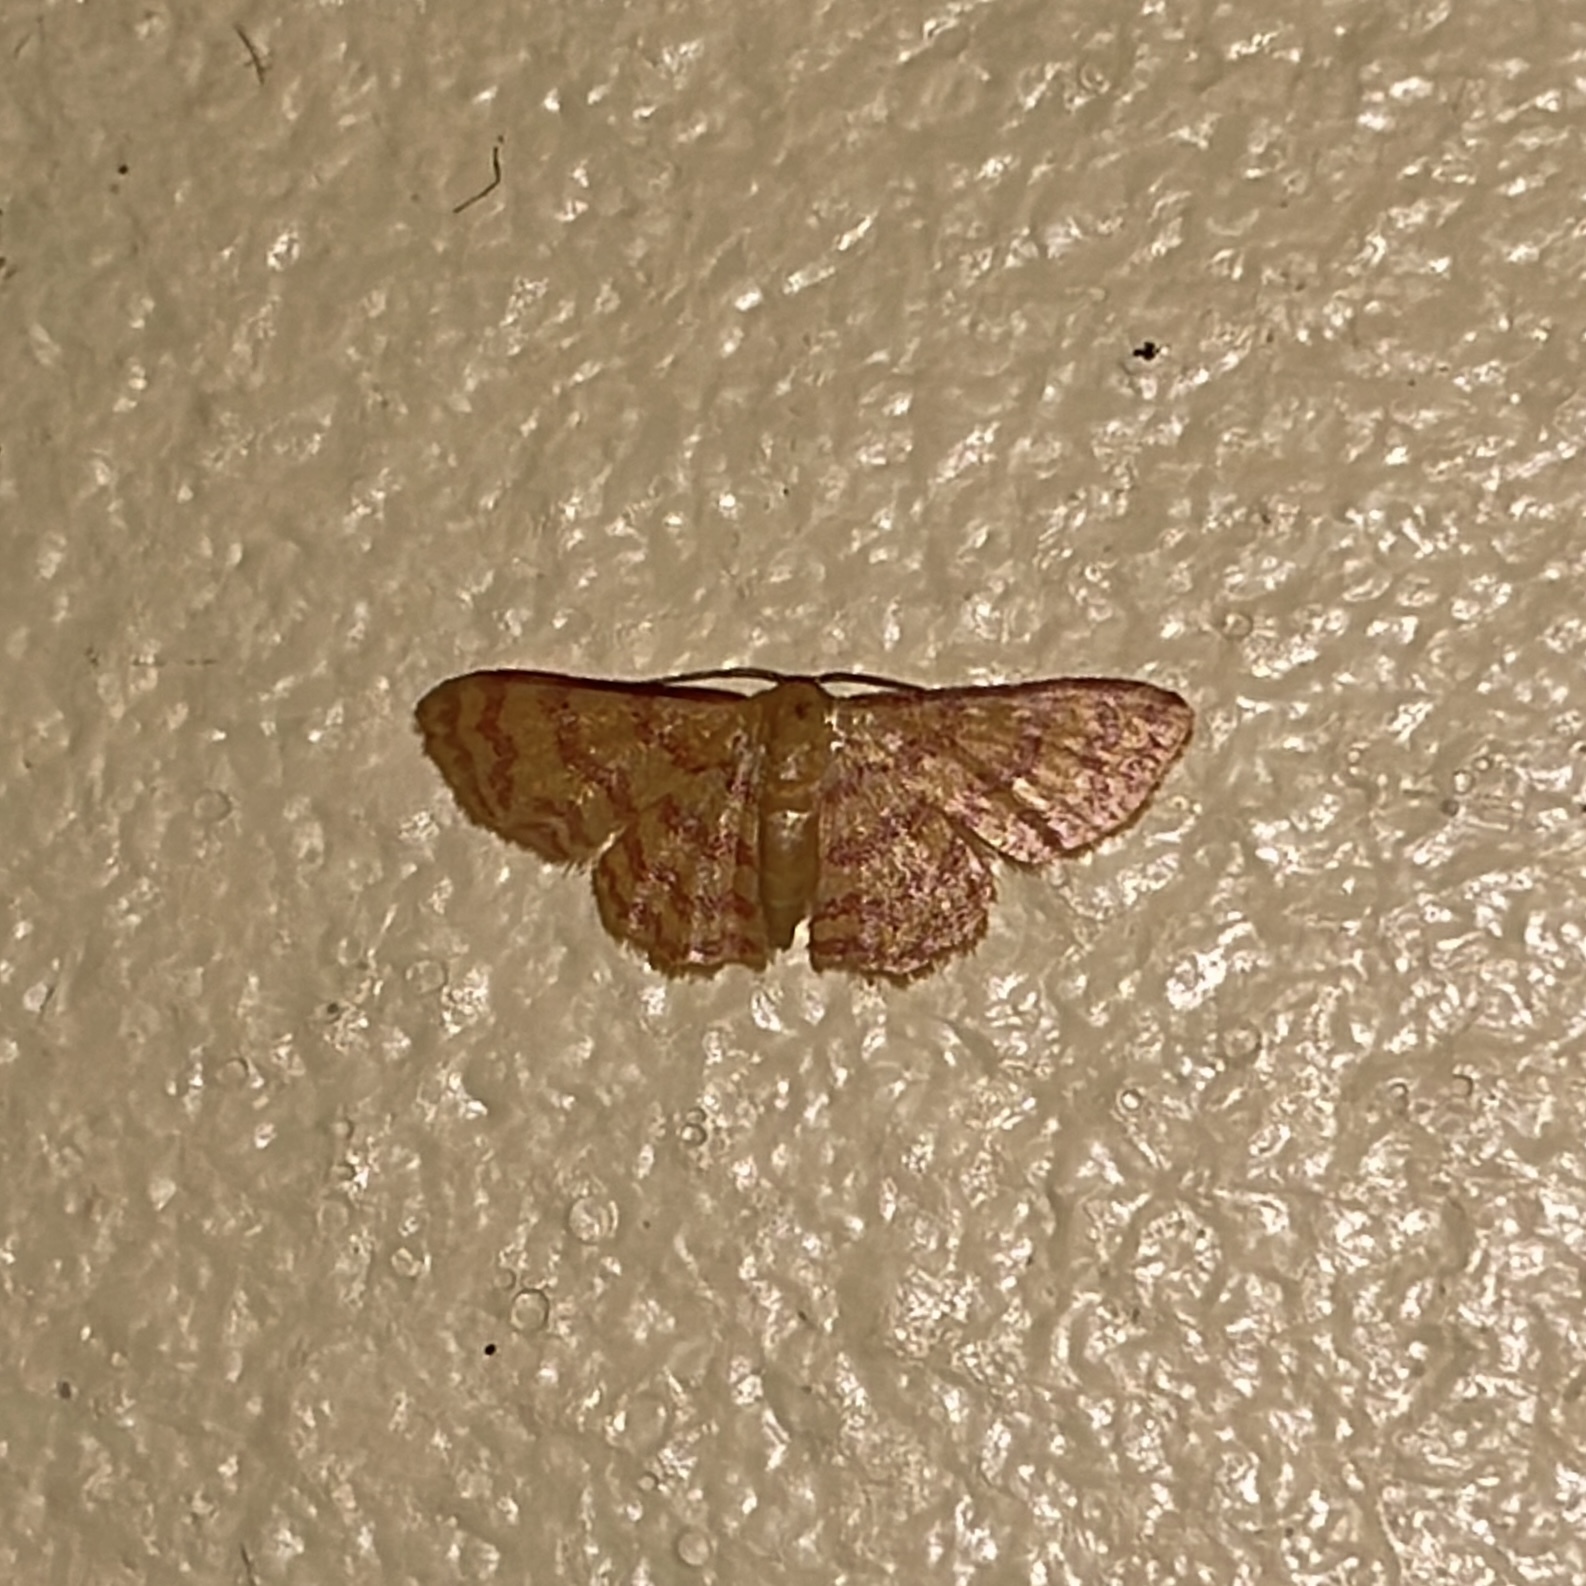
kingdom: Animalia
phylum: Arthropoda
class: Insecta
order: Lepidoptera
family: Geometridae
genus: Tricentrogyna
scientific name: Tricentrogyna deportata
